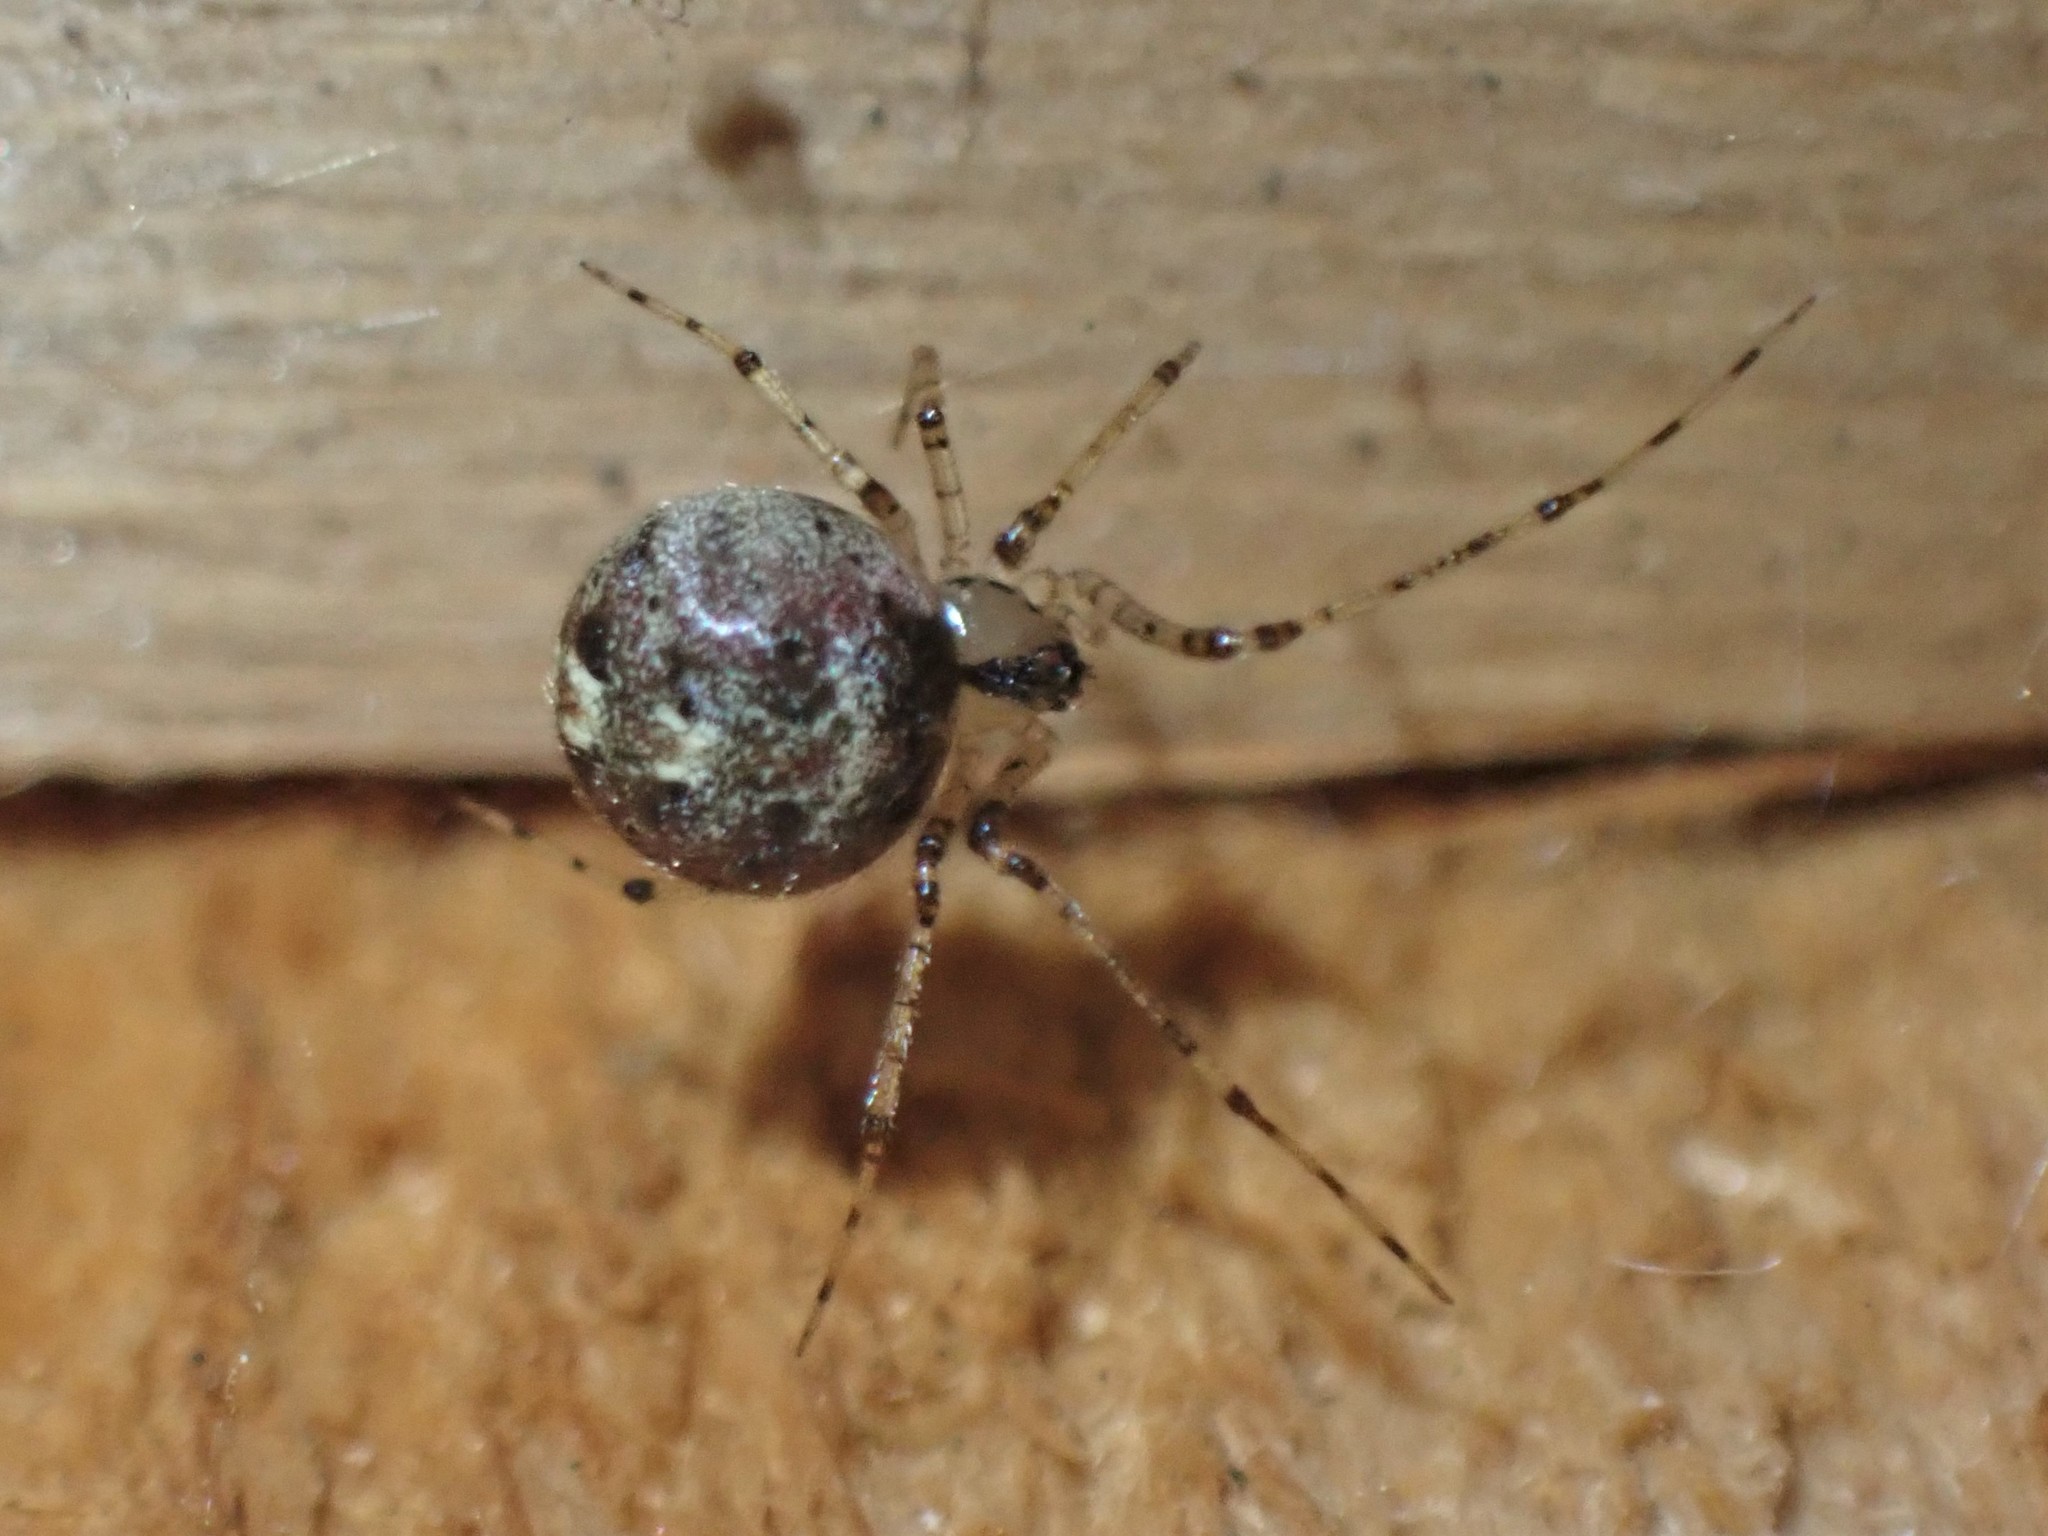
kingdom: Animalia
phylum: Arthropoda
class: Arachnida
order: Araneae
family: Theridiidae
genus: Platnickina
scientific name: Platnickina tincta
